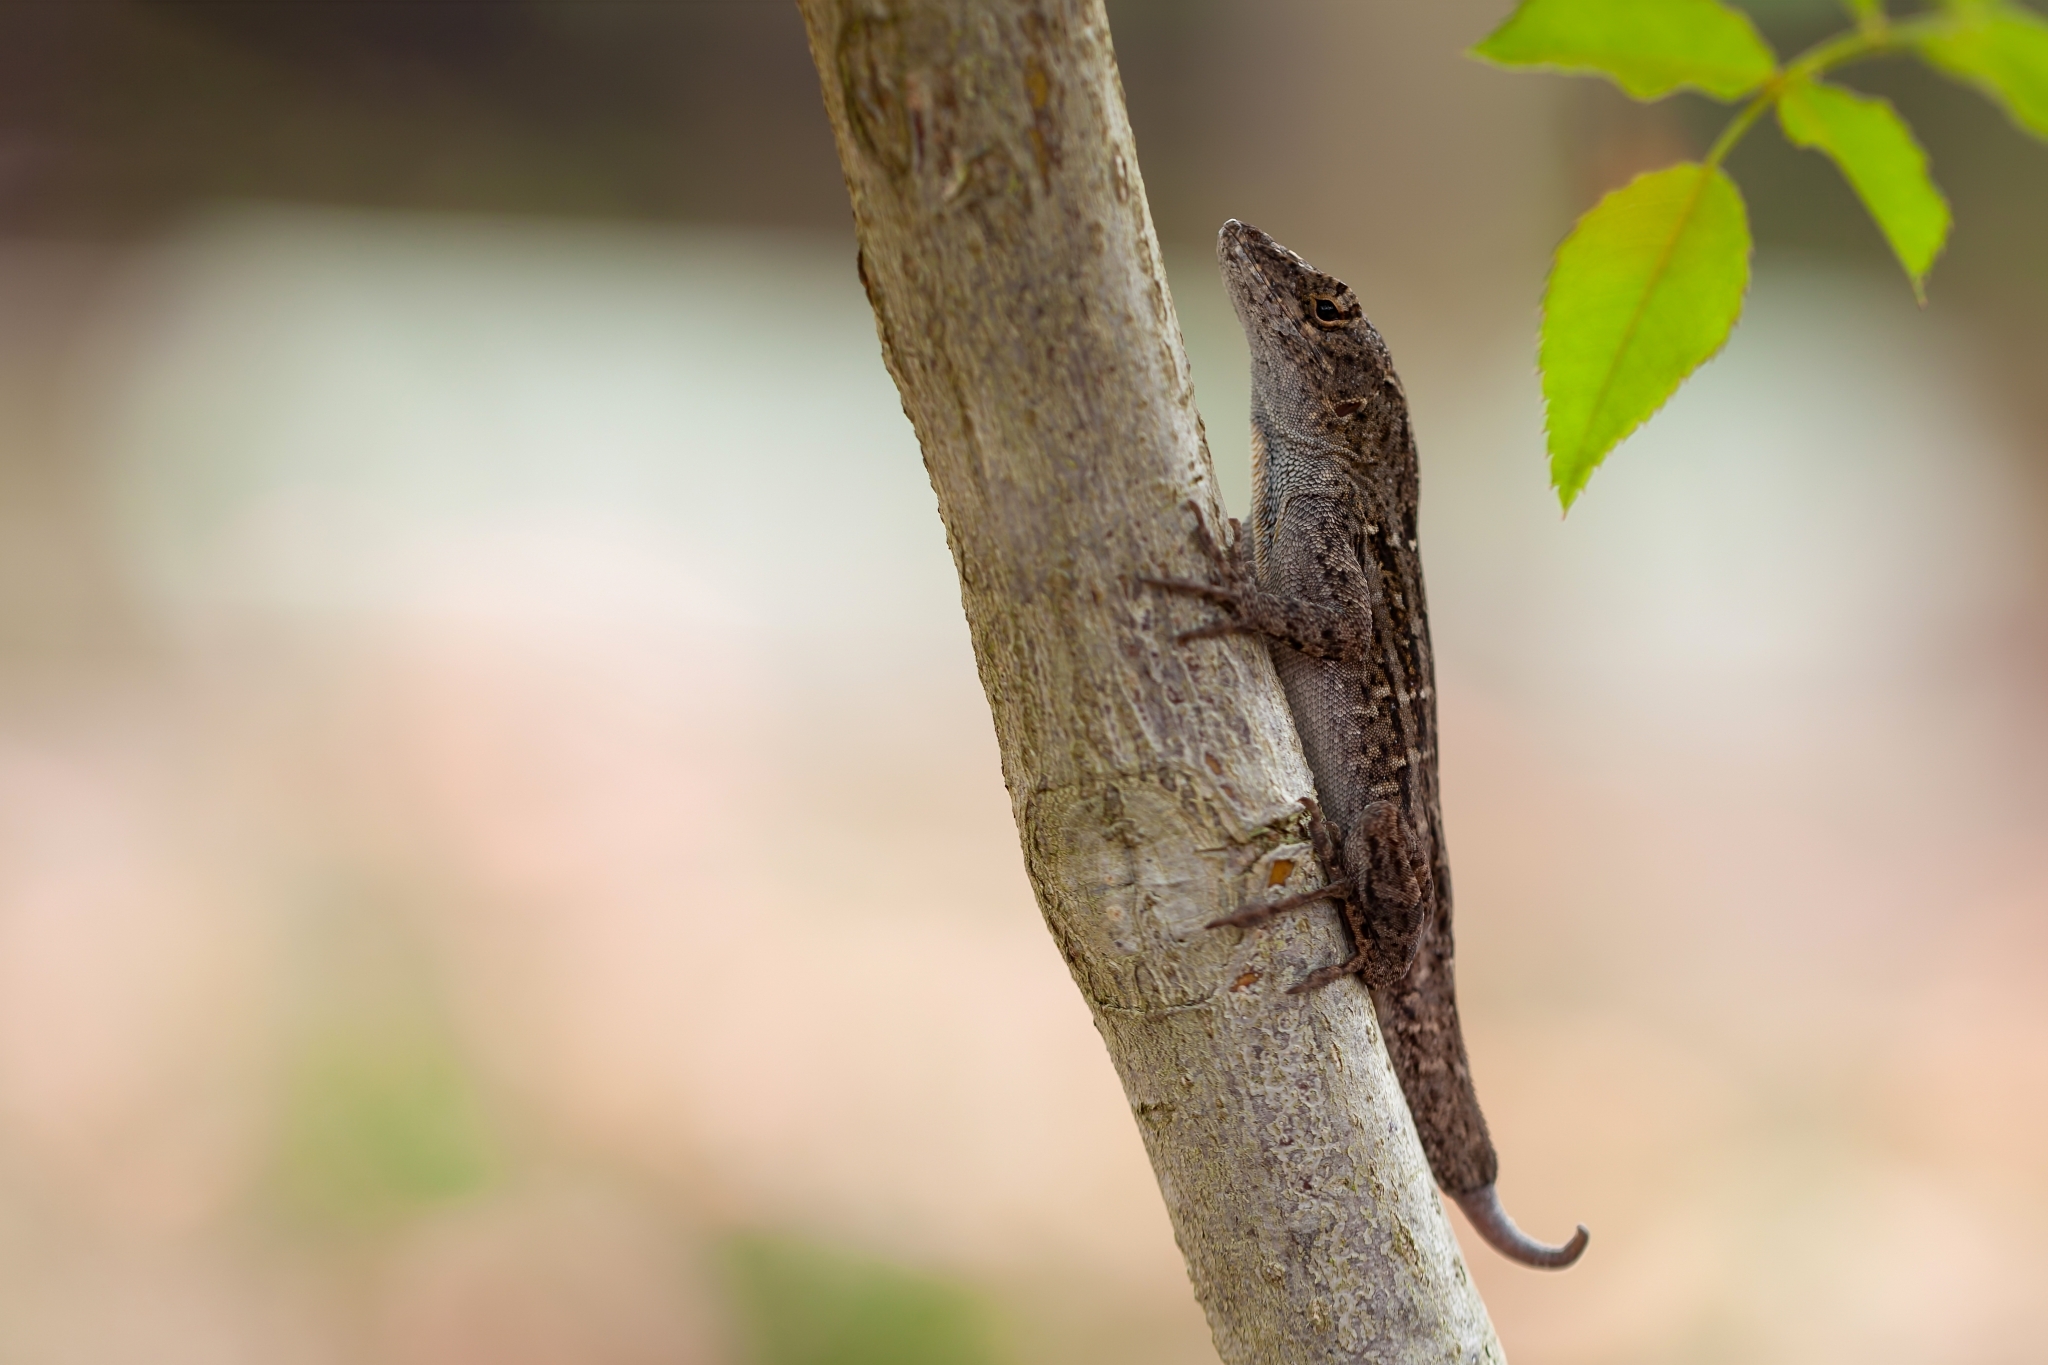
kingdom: Animalia
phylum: Chordata
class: Squamata
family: Dactyloidae
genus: Anolis
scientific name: Anolis sagrei
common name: Brown anole
